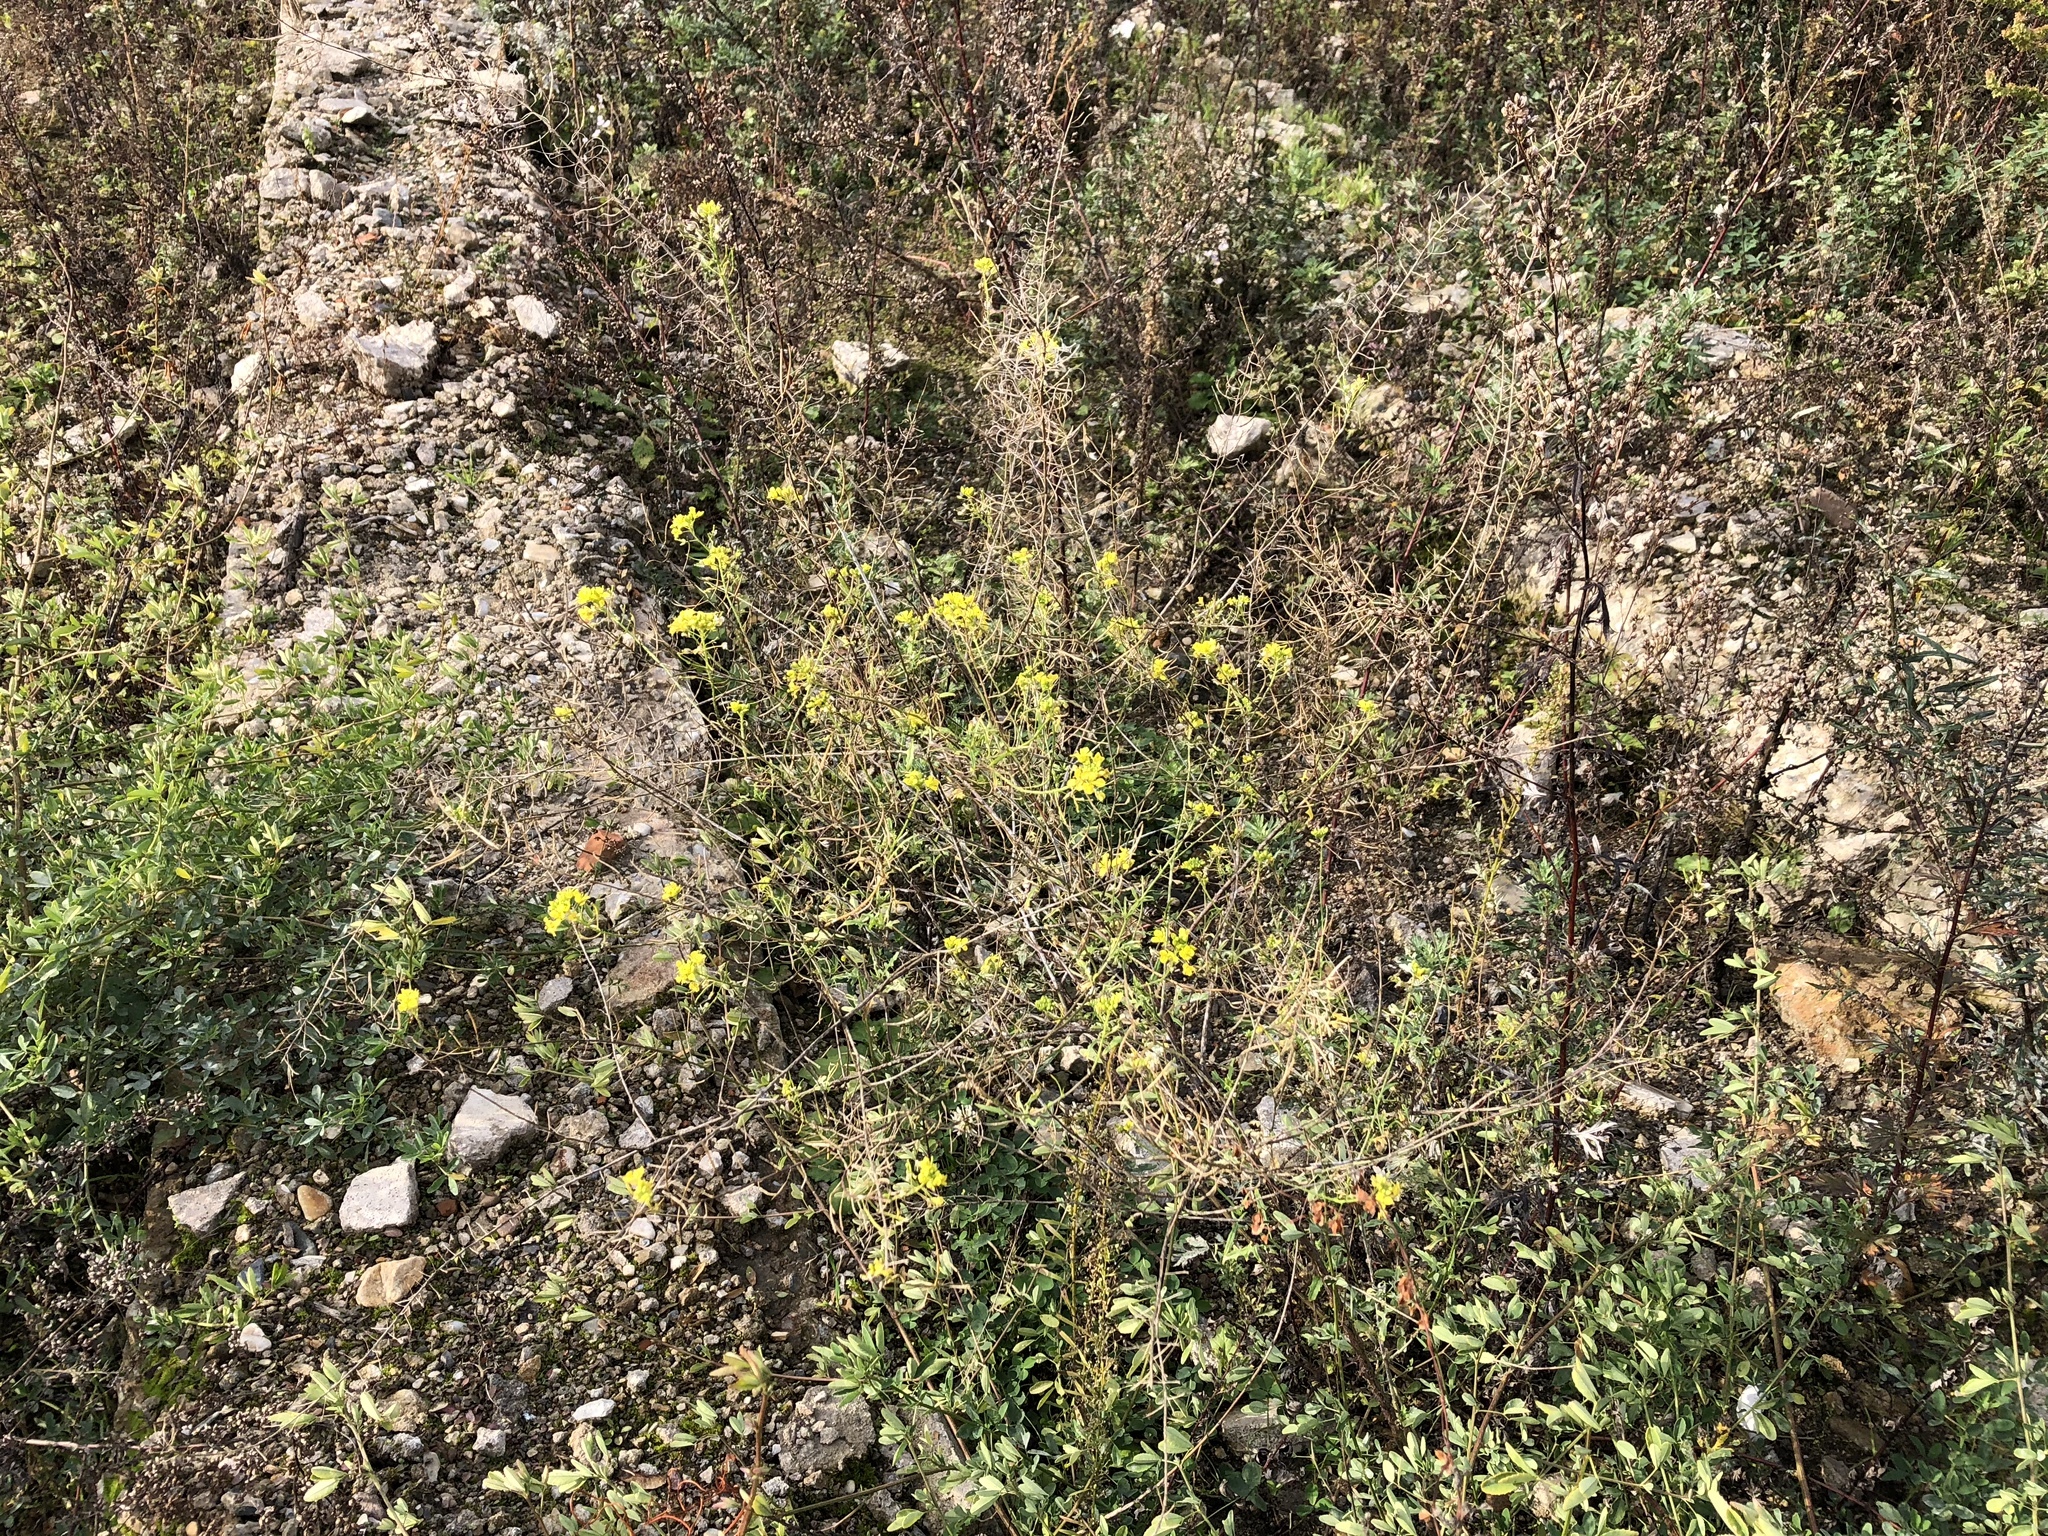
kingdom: Plantae
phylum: Tracheophyta
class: Magnoliopsida
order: Brassicales
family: Brassicaceae
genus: Sisymbrium
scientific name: Sisymbrium loeselii
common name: False london-rocket
